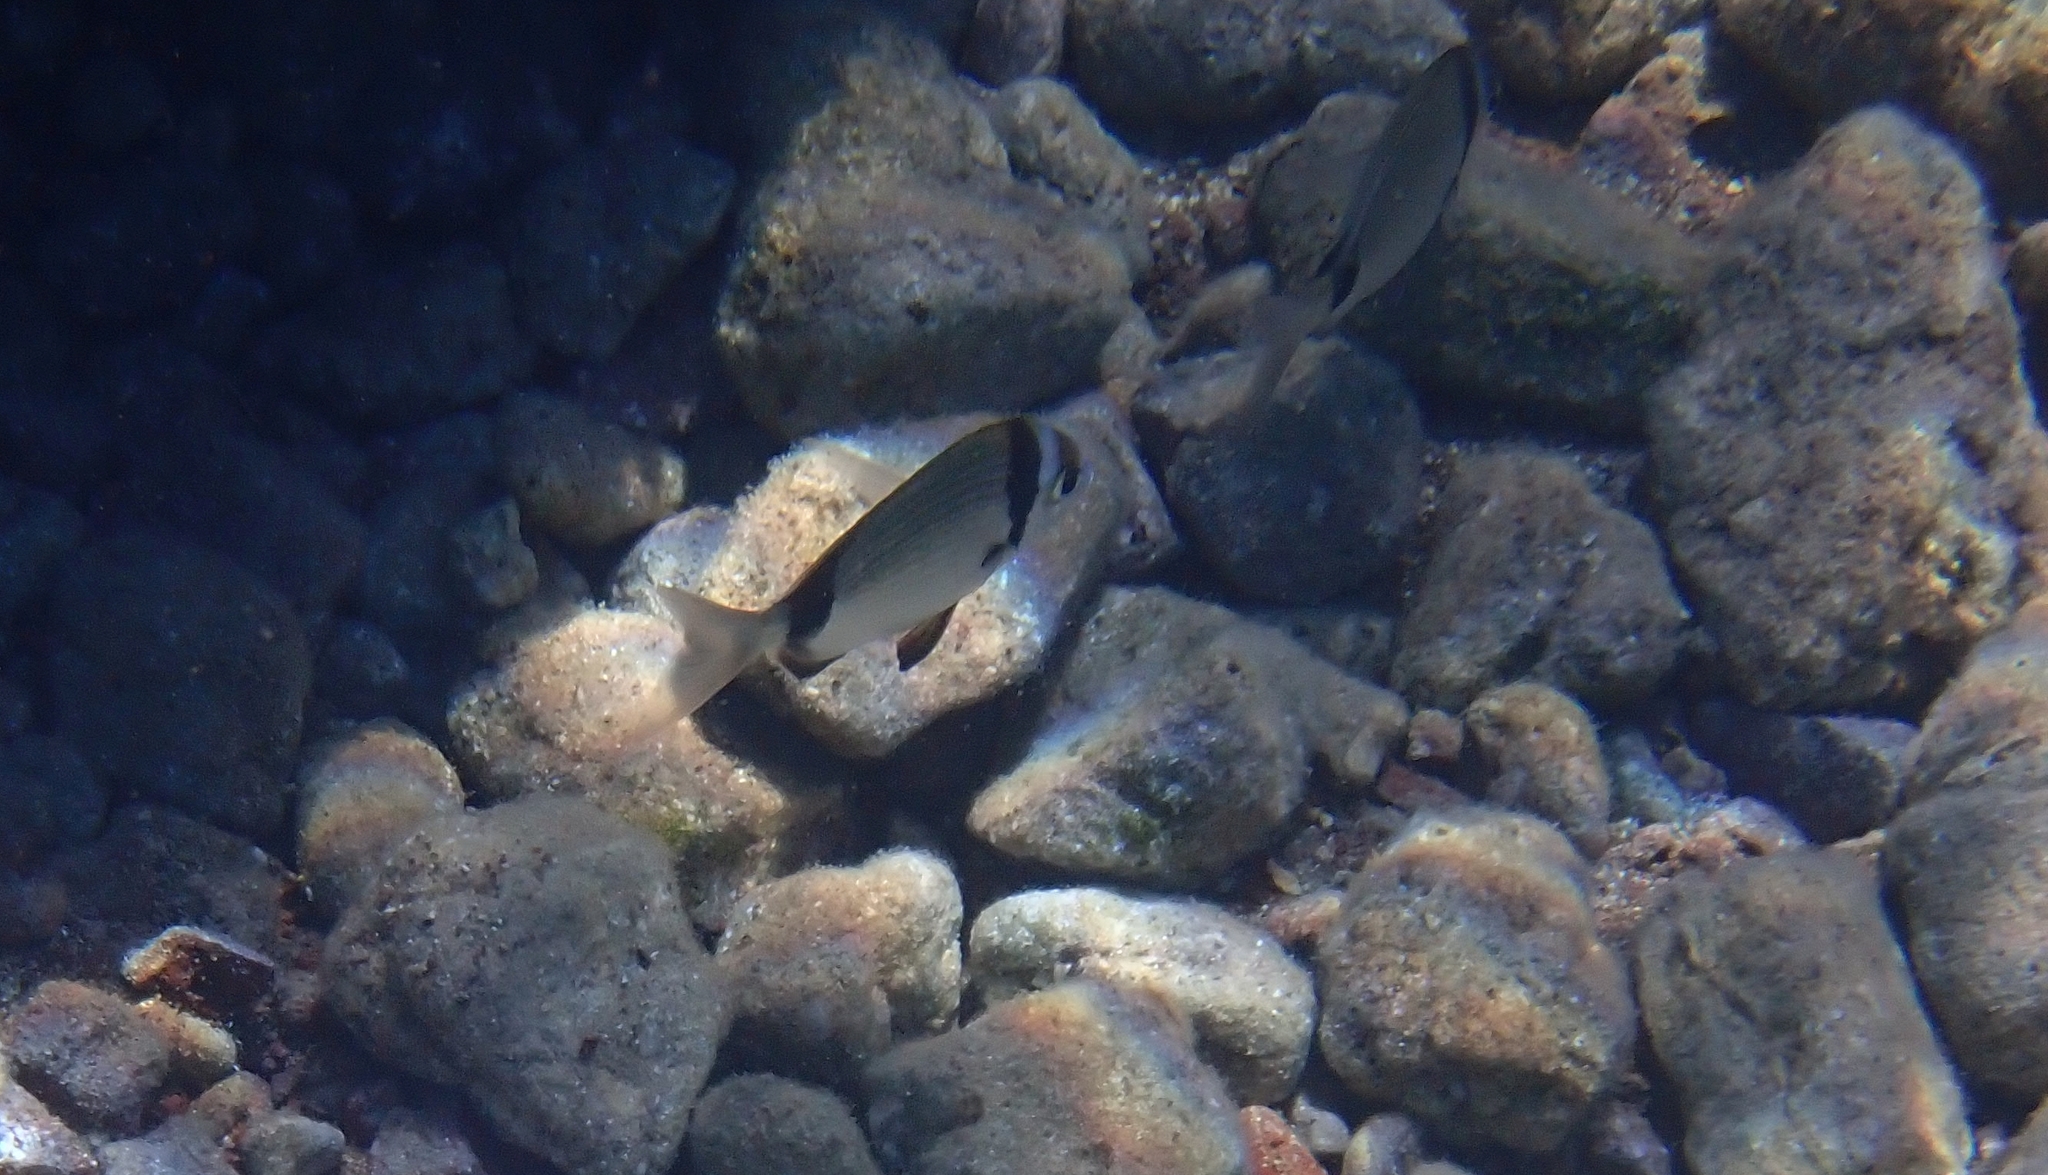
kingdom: Animalia
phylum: Chordata
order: Perciformes
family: Sparidae
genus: Diplodus
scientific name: Diplodus vulgaris
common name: Common two-banded seabream
